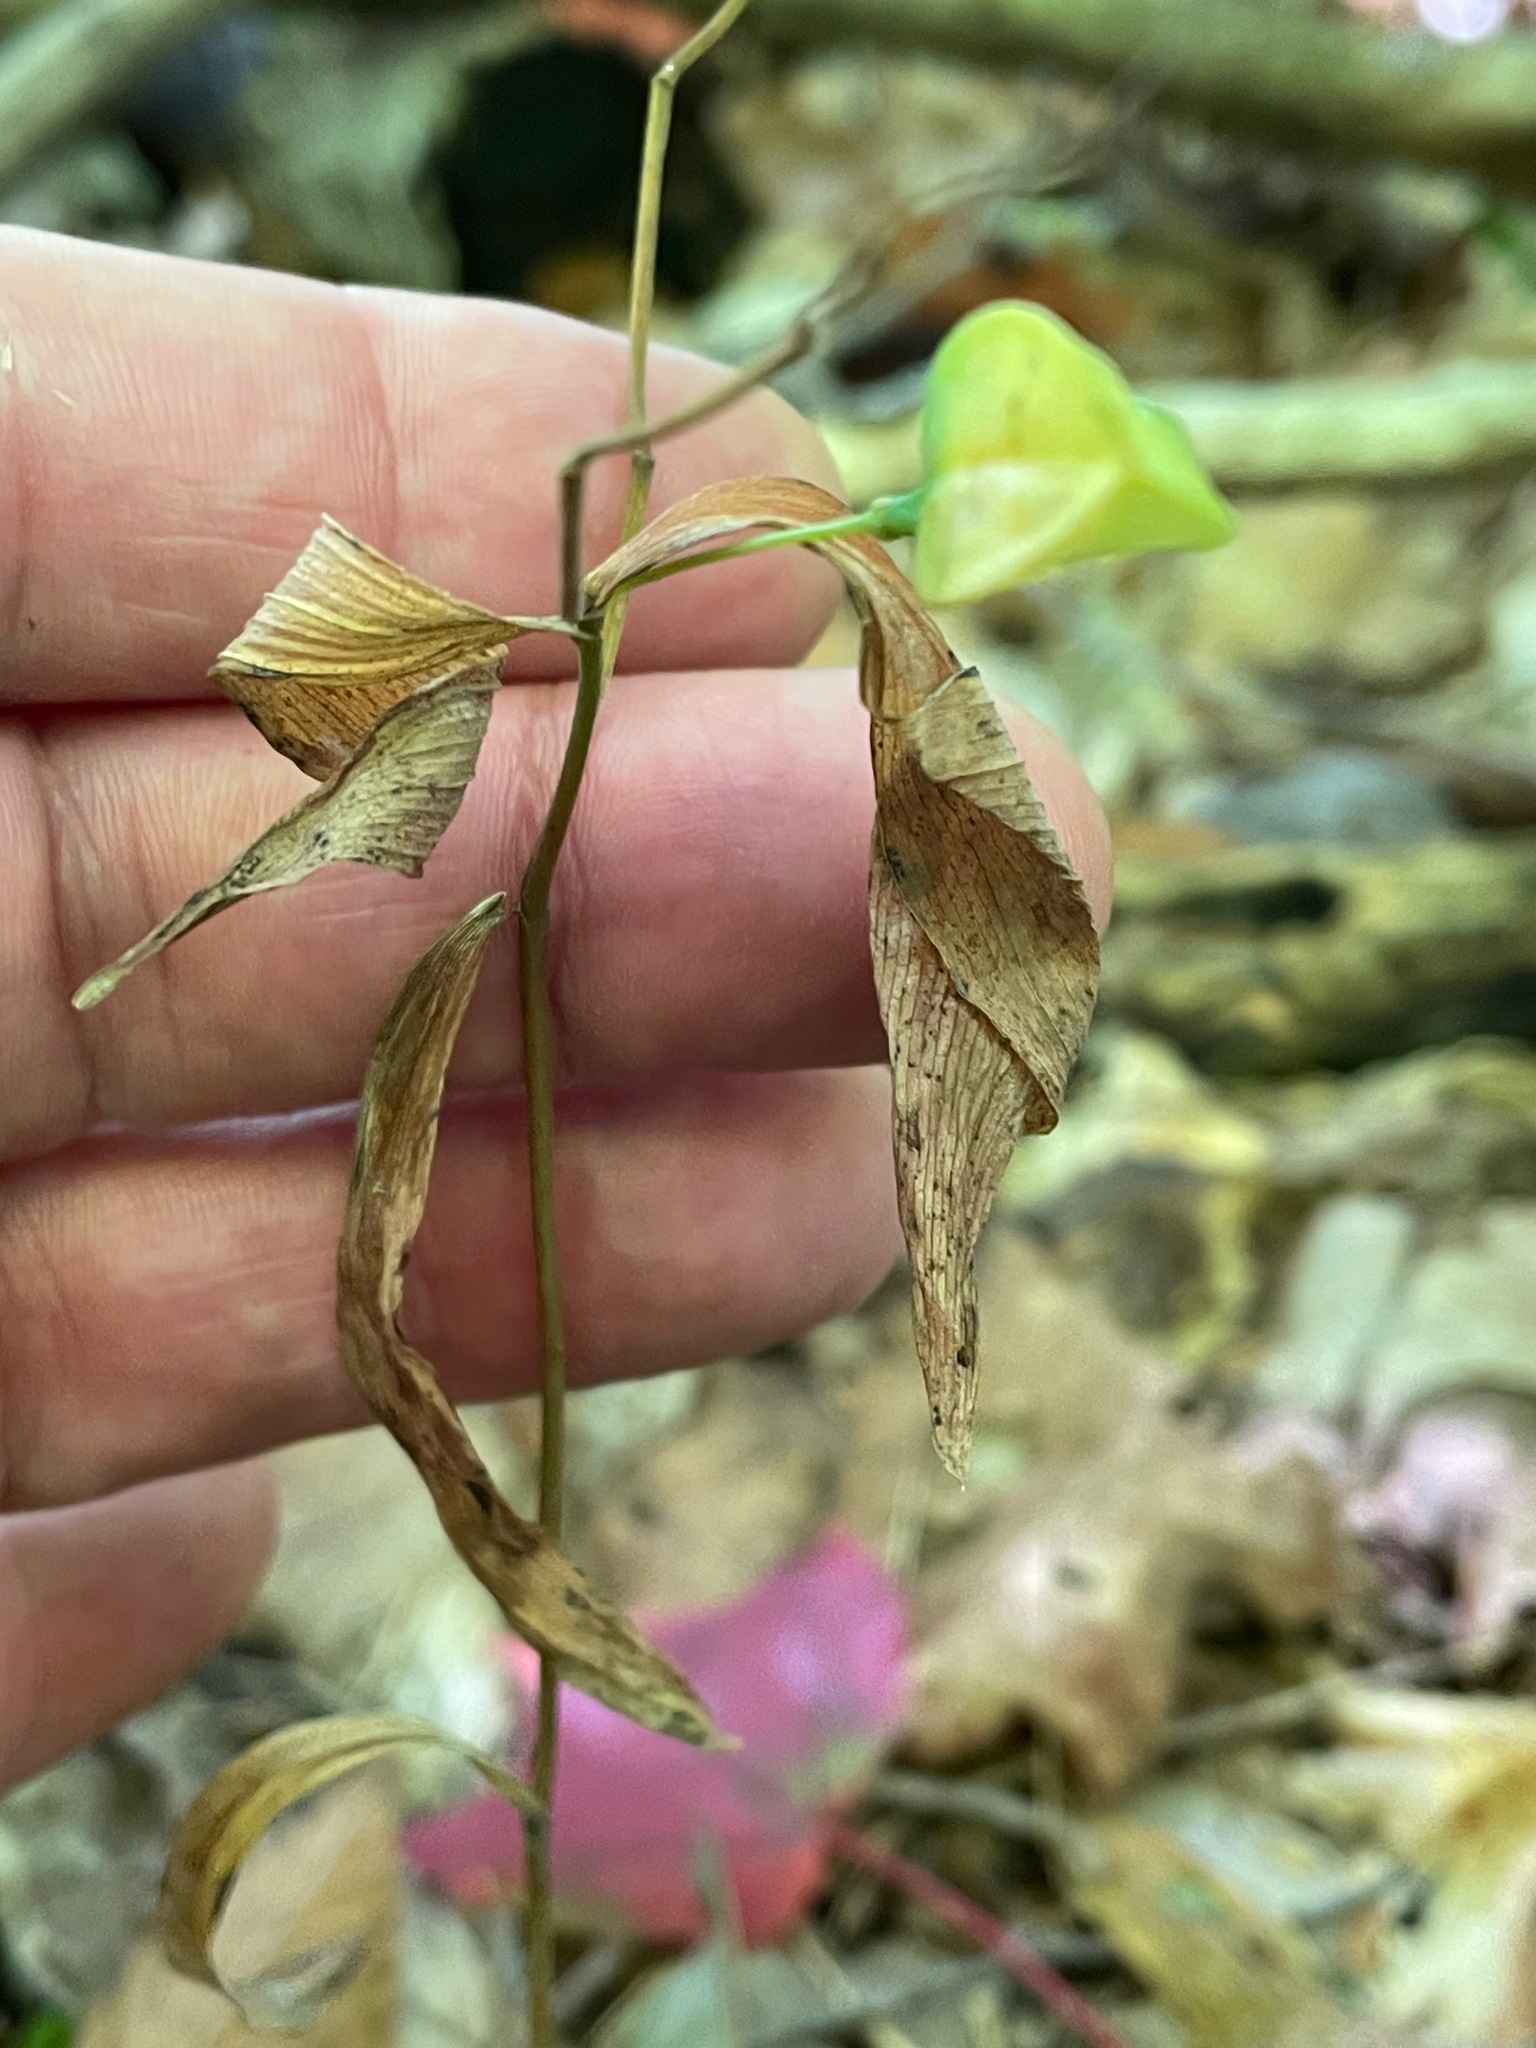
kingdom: Plantae
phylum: Tracheophyta
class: Liliopsida
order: Liliales
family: Colchicaceae
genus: Uvularia
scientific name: Uvularia sessilifolia
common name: Straw-lily
